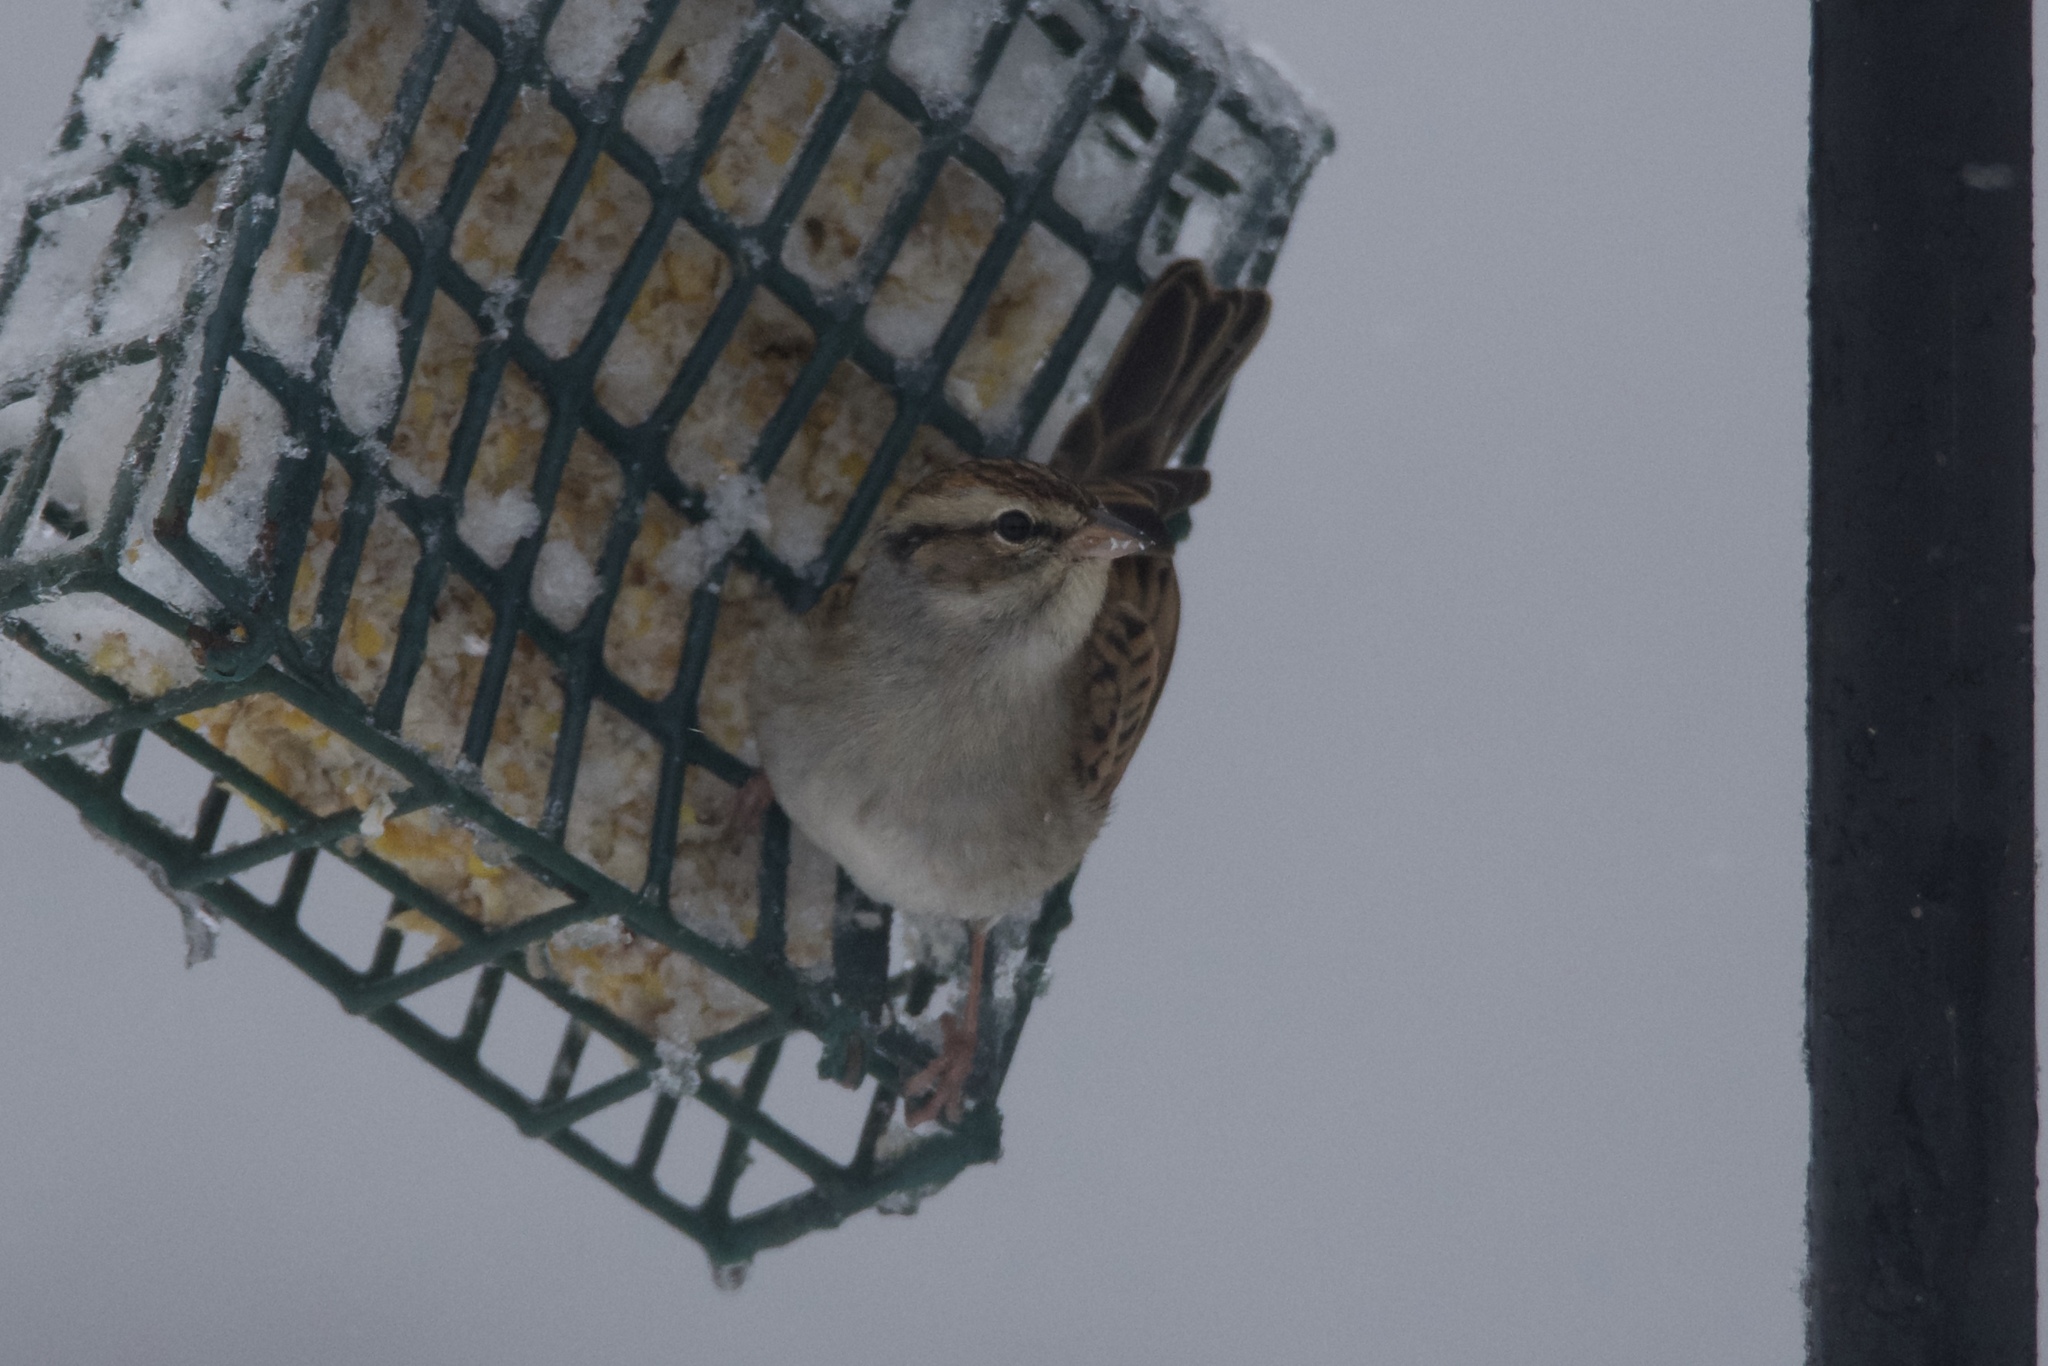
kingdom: Animalia
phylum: Chordata
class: Aves
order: Passeriformes
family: Passerellidae
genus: Spizella
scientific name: Spizella passerina
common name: Chipping sparrow
